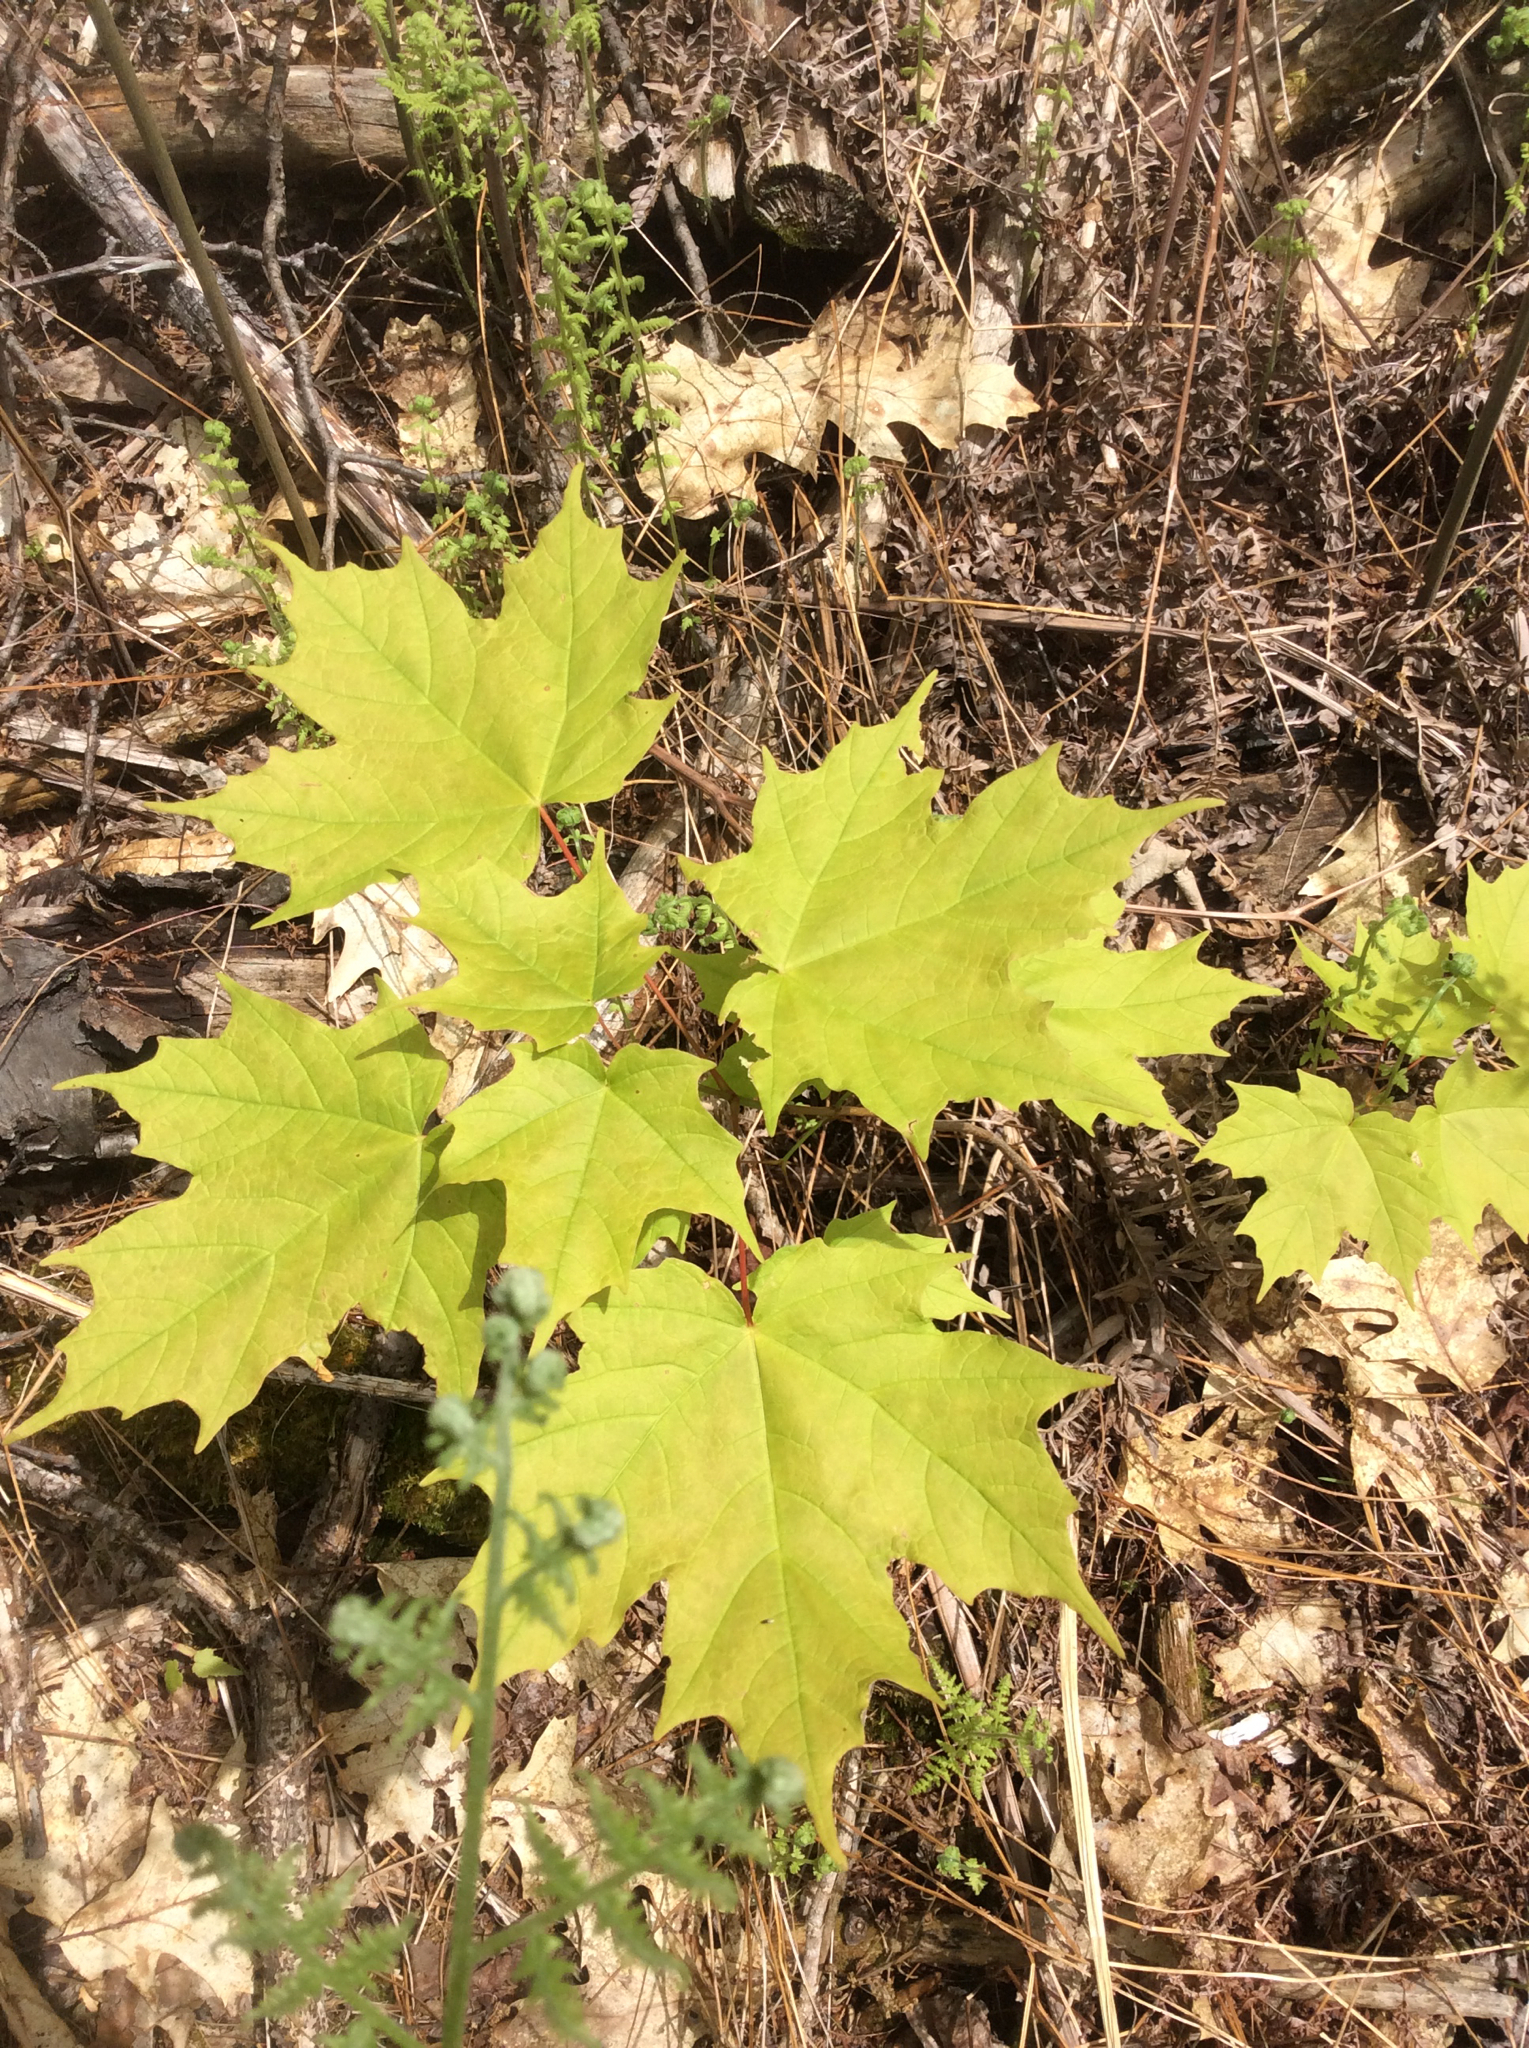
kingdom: Plantae
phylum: Tracheophyta
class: Magnoliopsida
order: Sapindales
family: Sapindaceae
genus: Acer
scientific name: Acer saccharum
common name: Sugar maple
